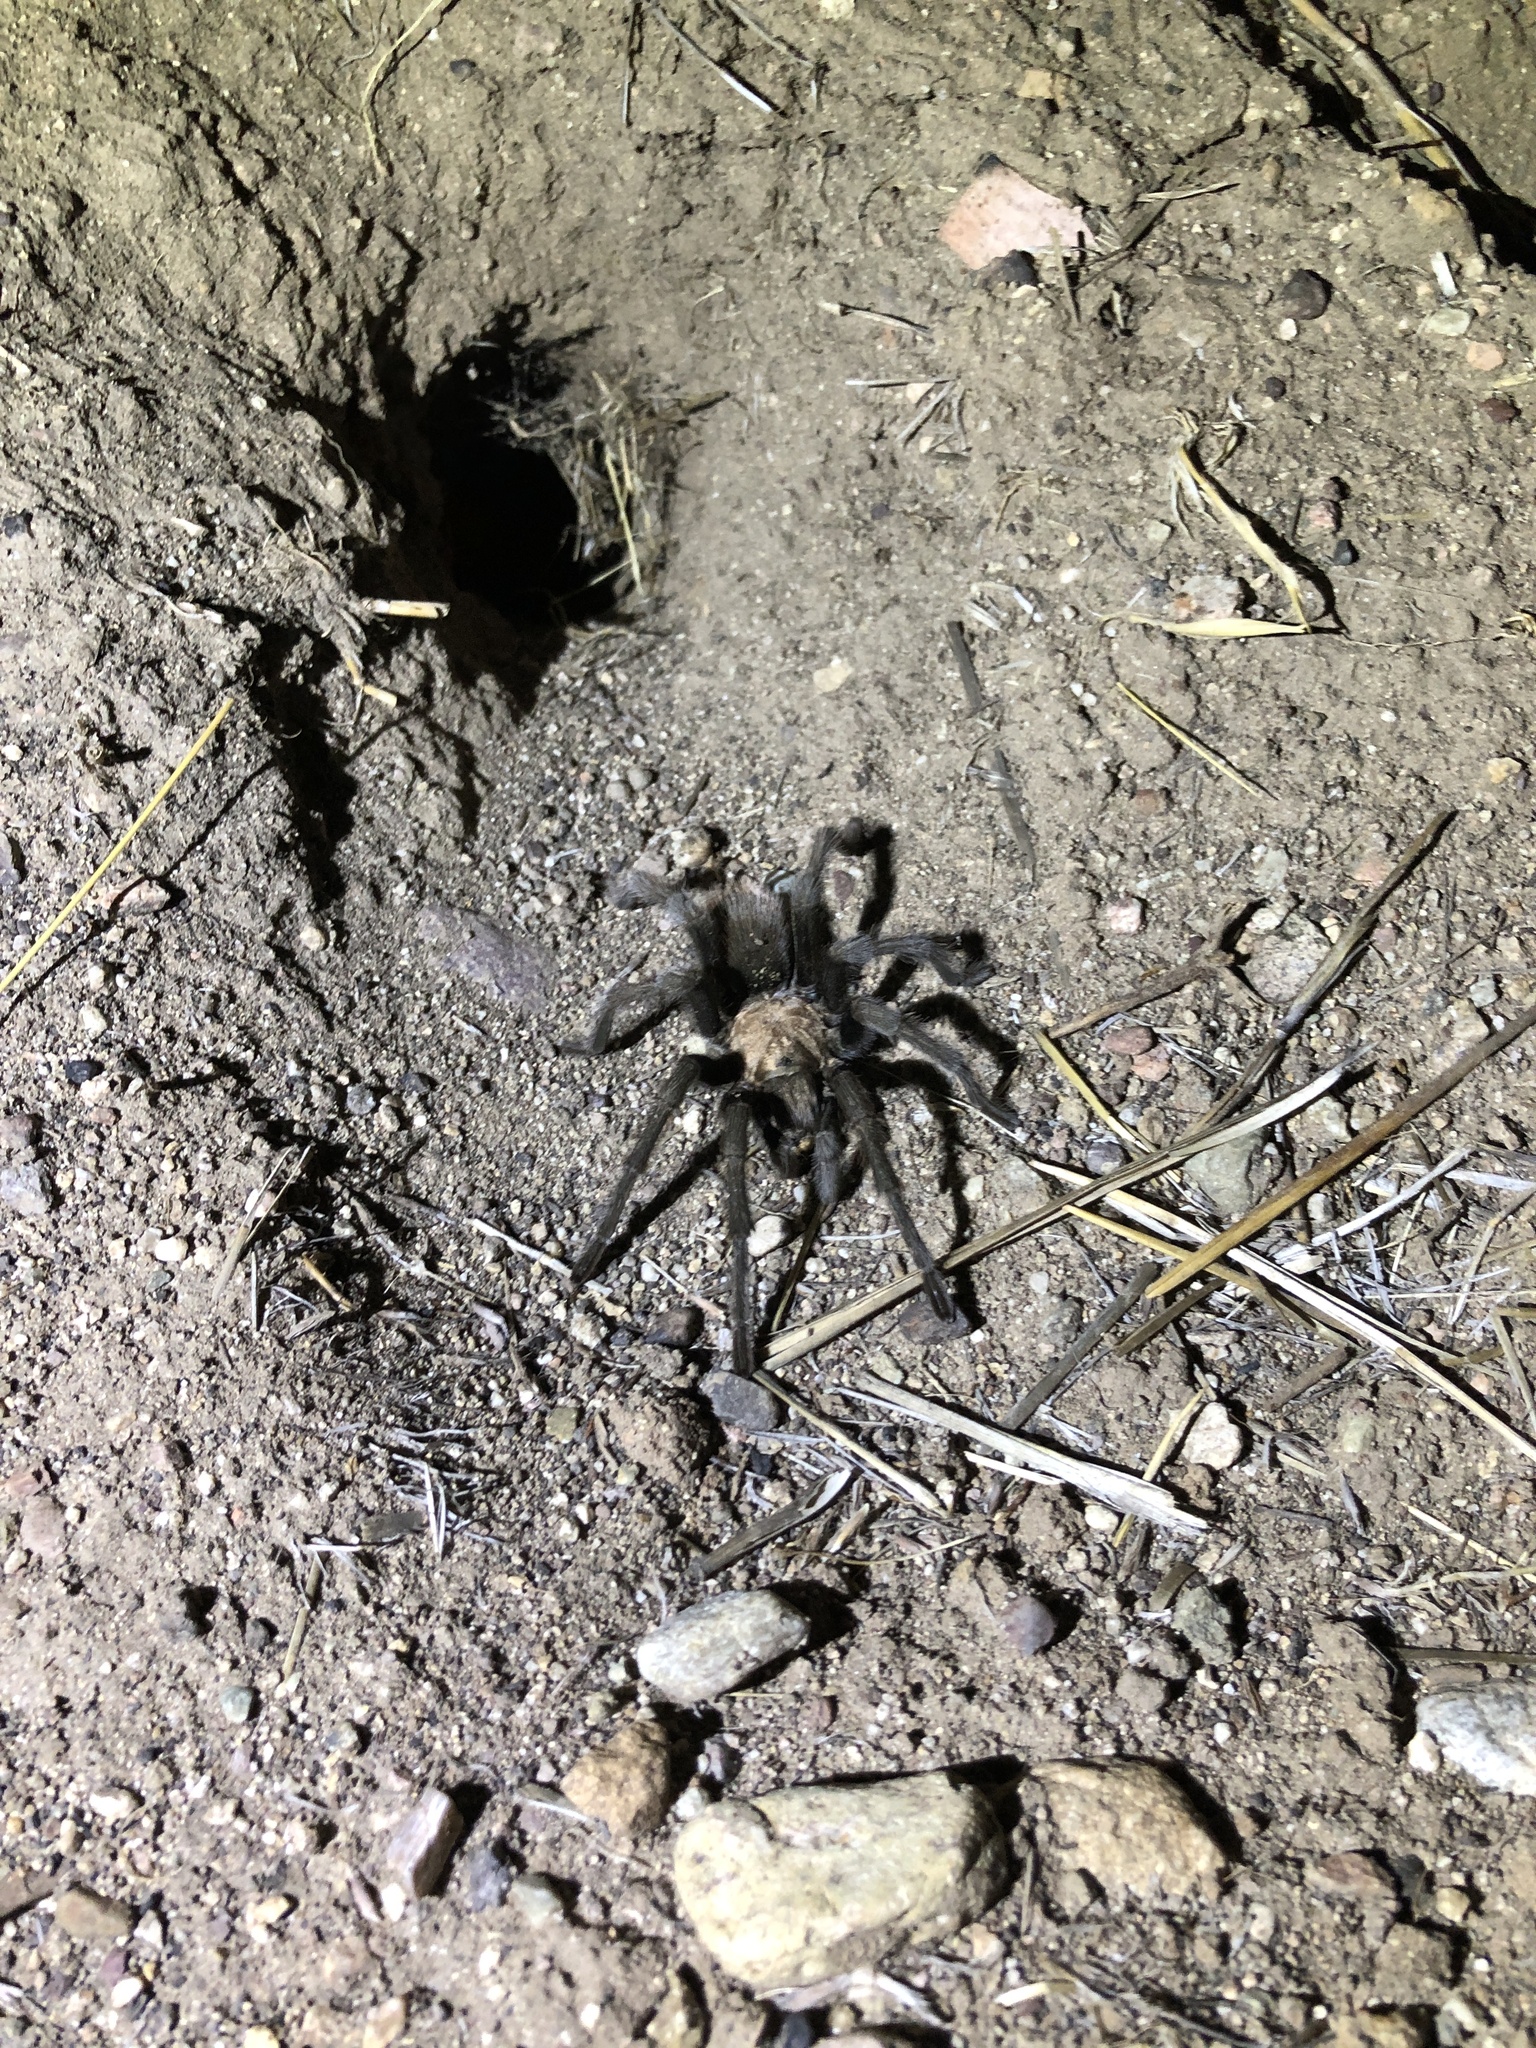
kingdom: Animalia
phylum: Arthropoda
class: Arachnida
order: Araneae
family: Theraphosidae
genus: Aphonopelma
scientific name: Aphonopelma eutylenum
